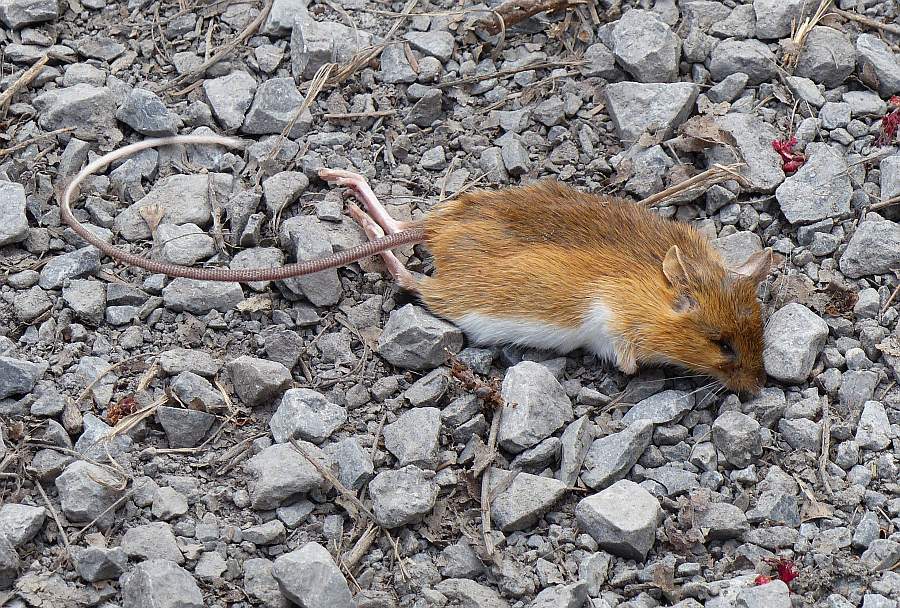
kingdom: Animalia
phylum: Chordata
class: Mammalia
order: Rodentia
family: Dipodidae
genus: Napaeozapus
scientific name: Napaeozapus insignis
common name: Woodland jumping mouse
